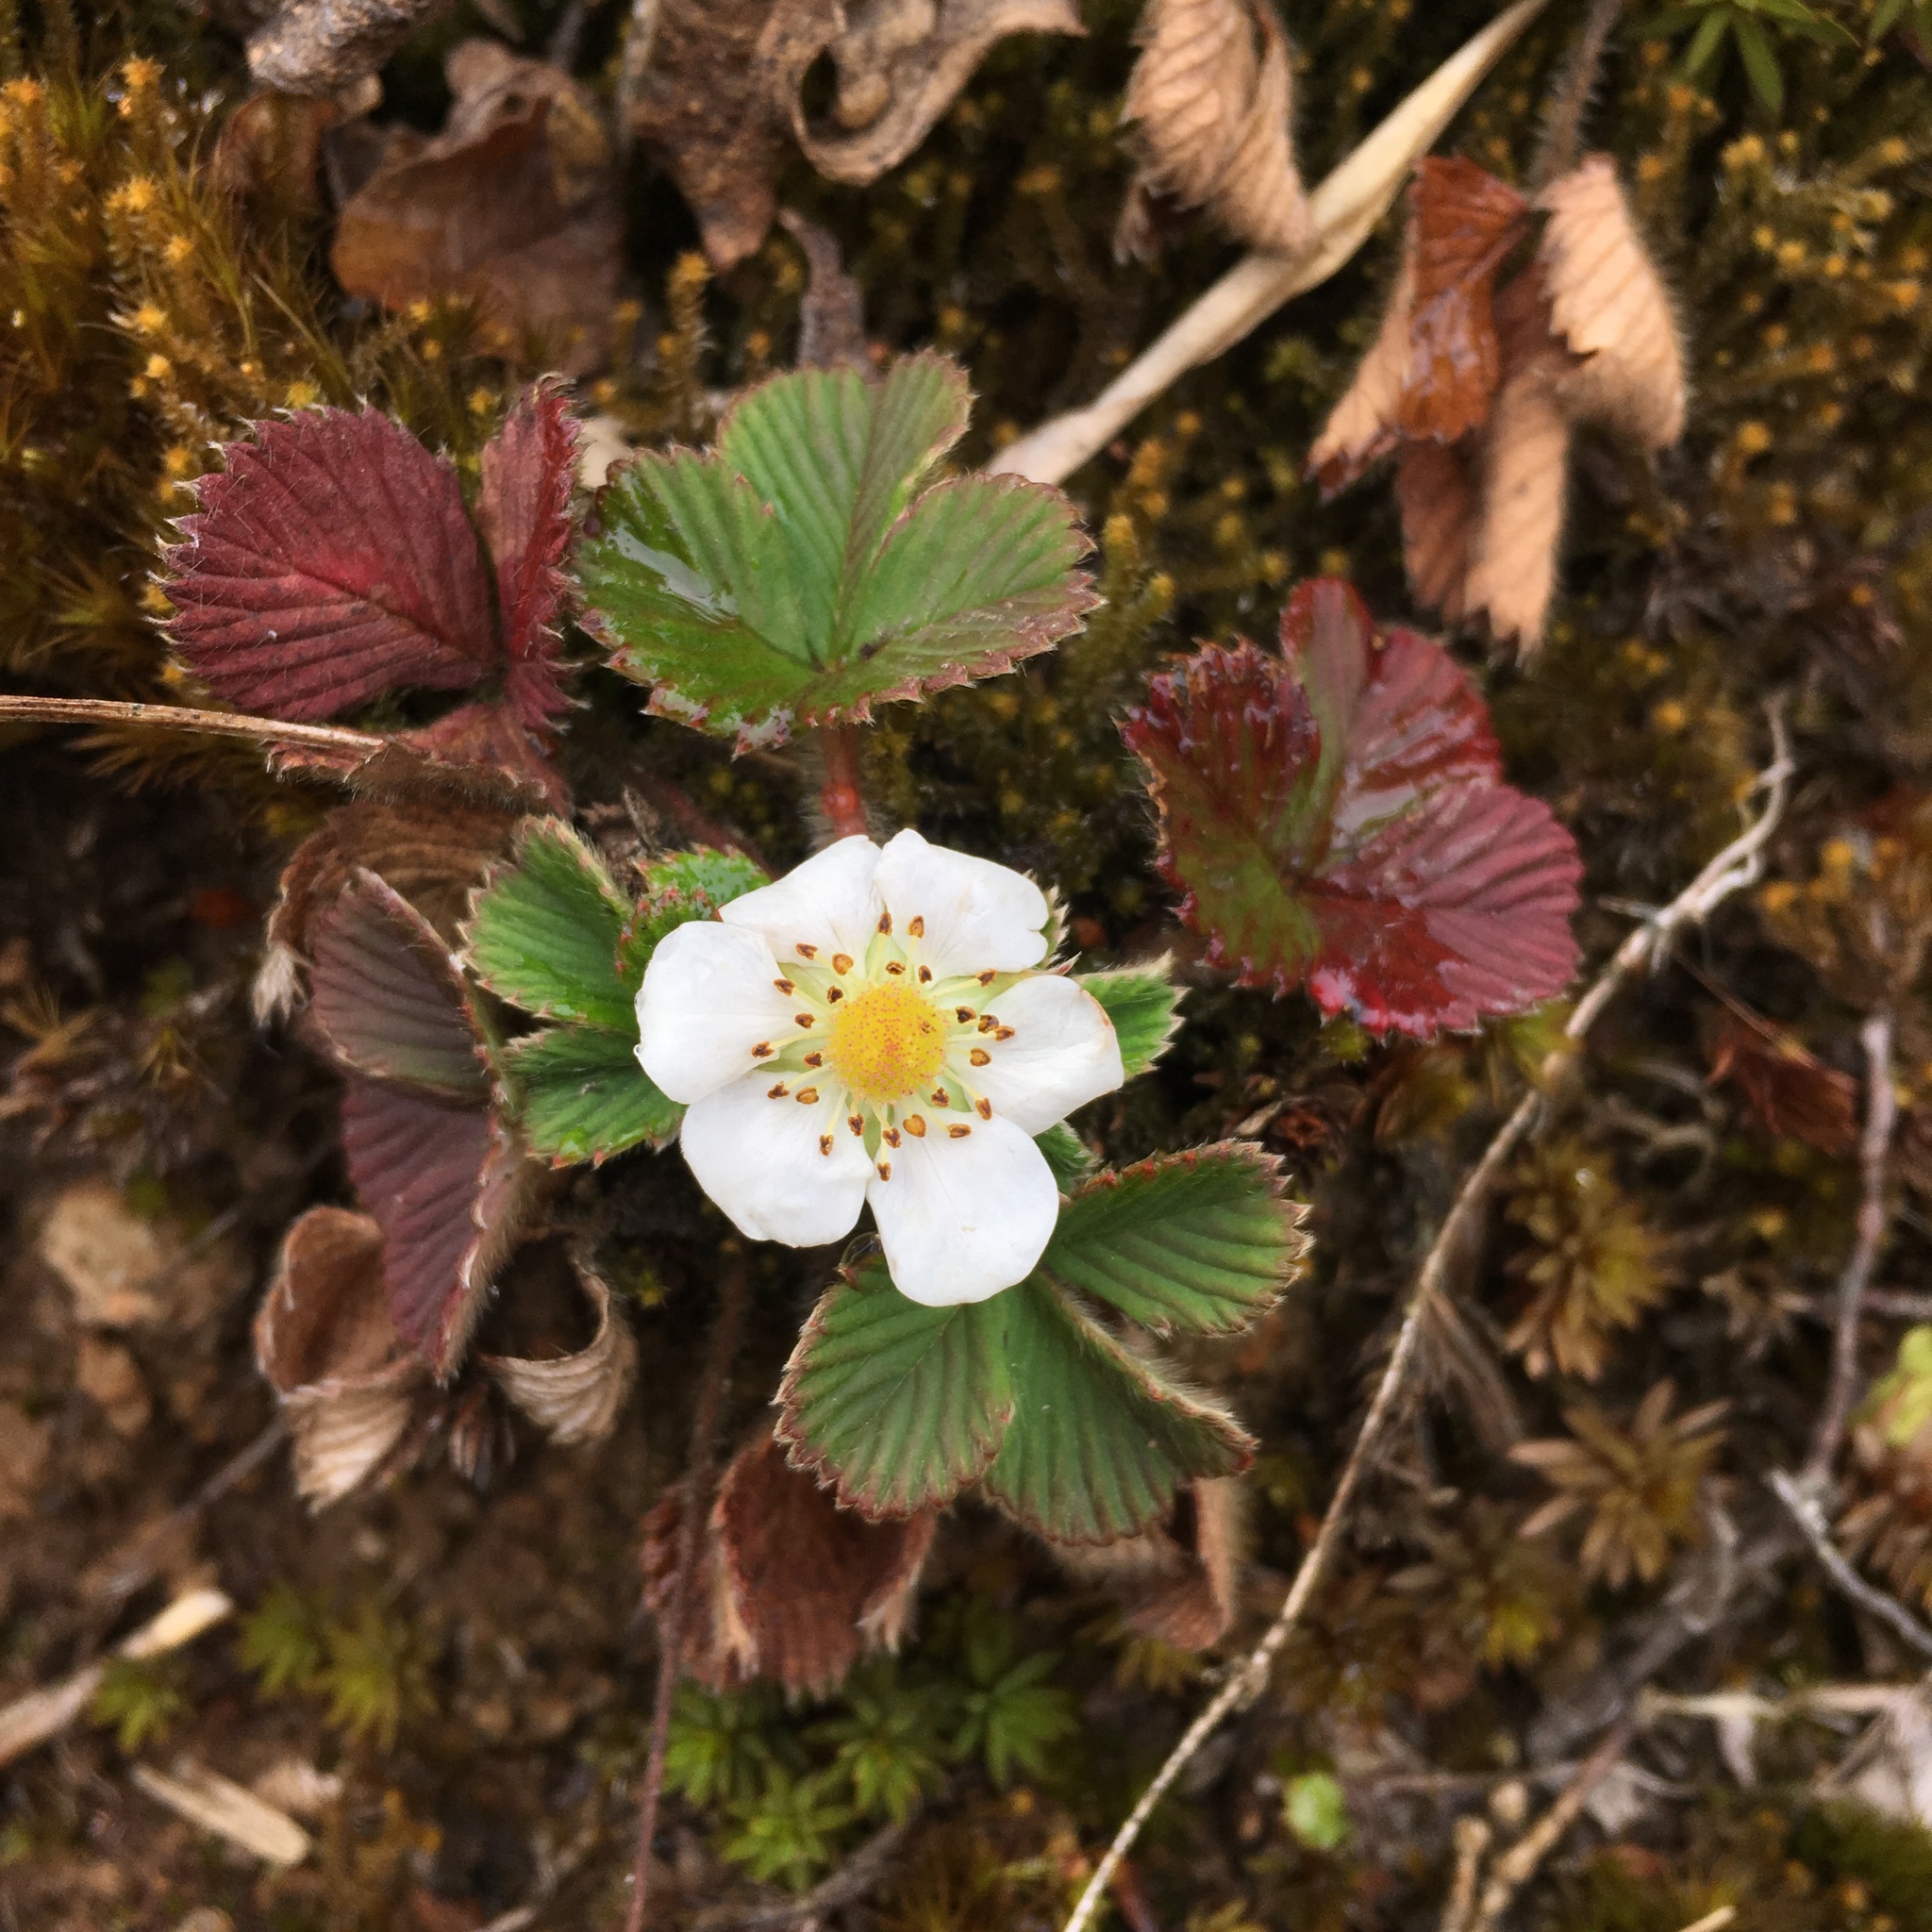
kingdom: Plantae
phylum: Tracheophyta
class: Magnoliopsida
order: Rosales
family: Rosaceae
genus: Fragaria
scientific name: Fragaria nilgerrensis
